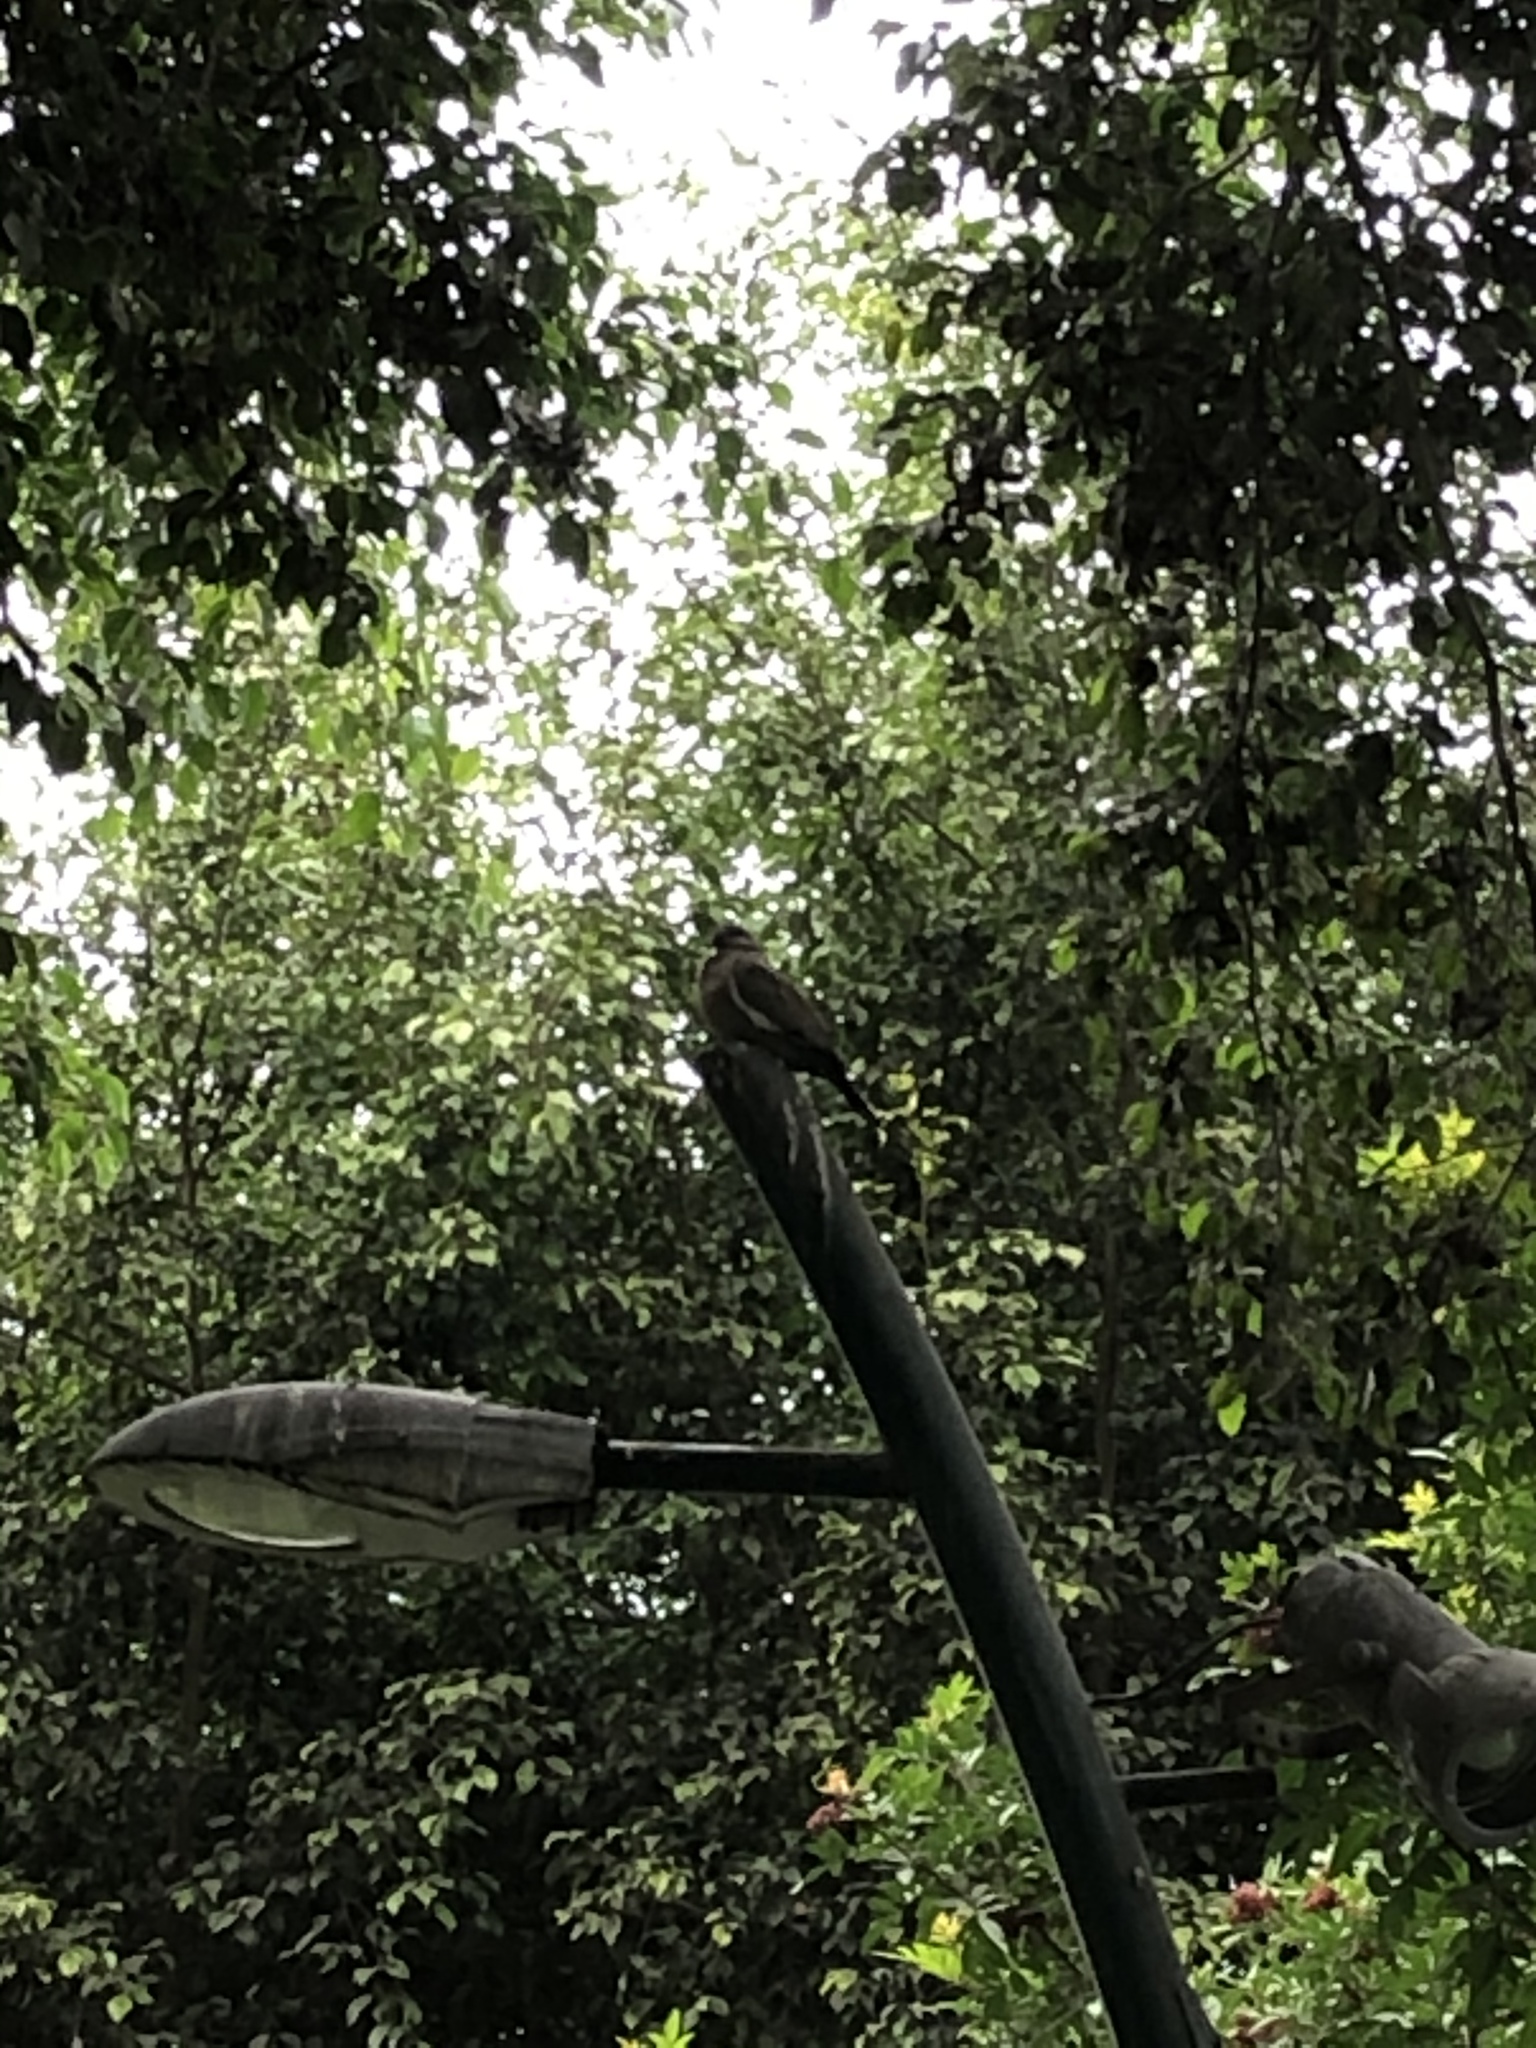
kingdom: Animalia
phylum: Chordata
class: Aves
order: Columbiformes
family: Columbidae
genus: Zenaida
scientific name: Zenaida meloda
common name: West peruvian dove
